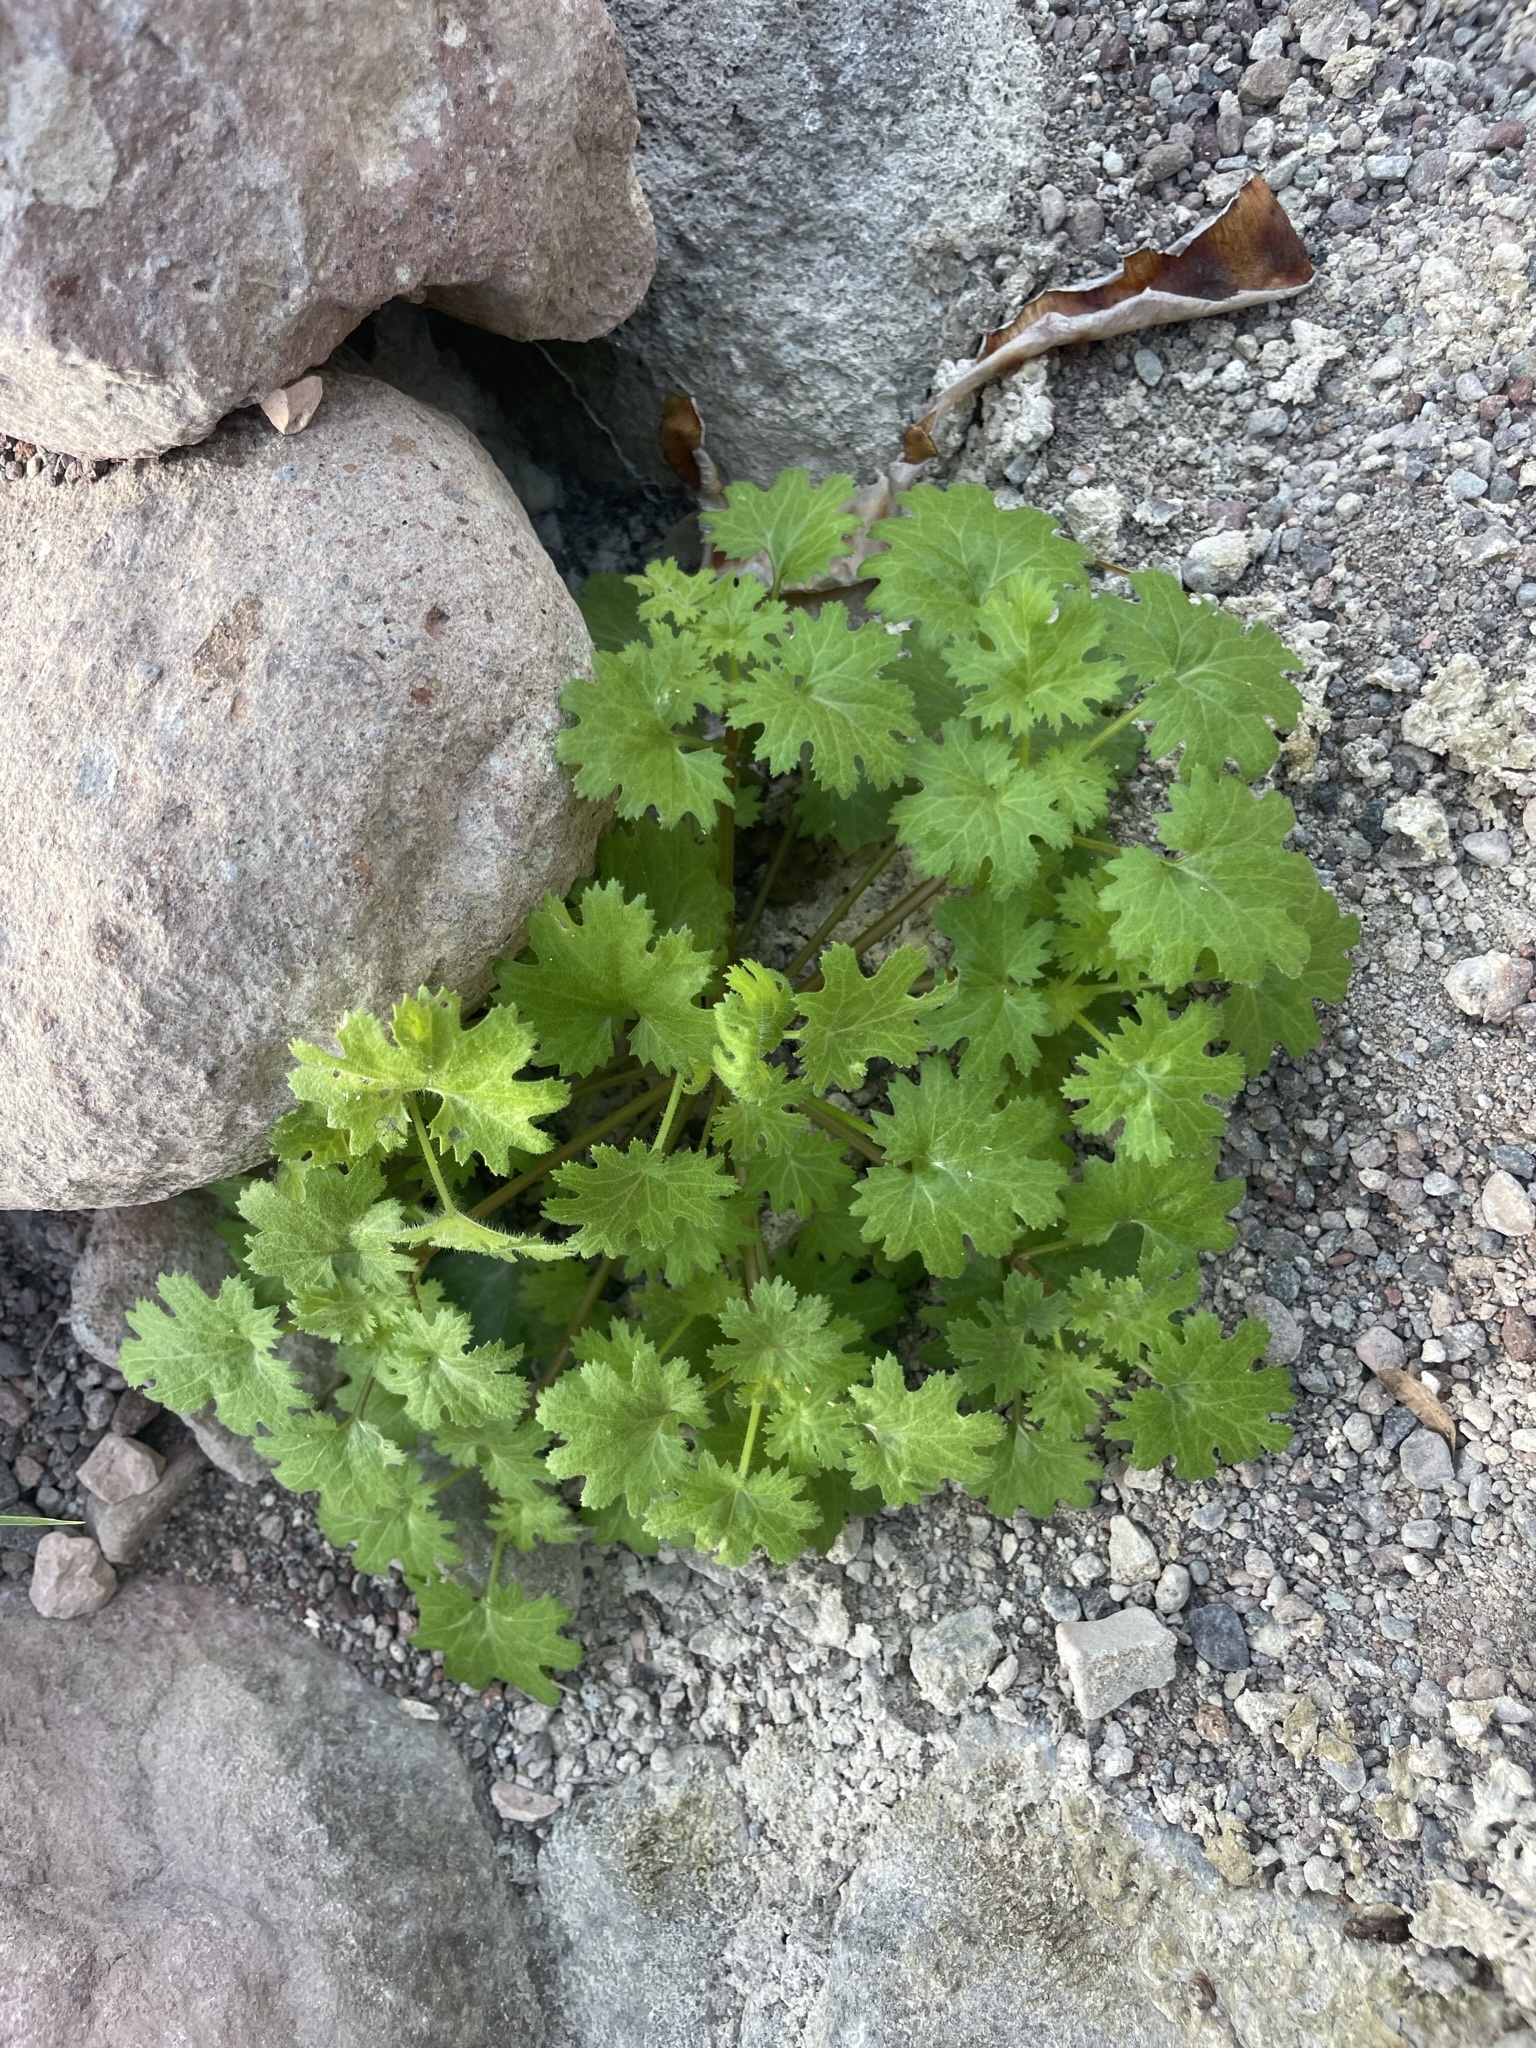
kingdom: Plantae
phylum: Tracheophyta
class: Magnoliopsida
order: Cornales
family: Loasaceae
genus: Eucnide
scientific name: Eucnide aurea
